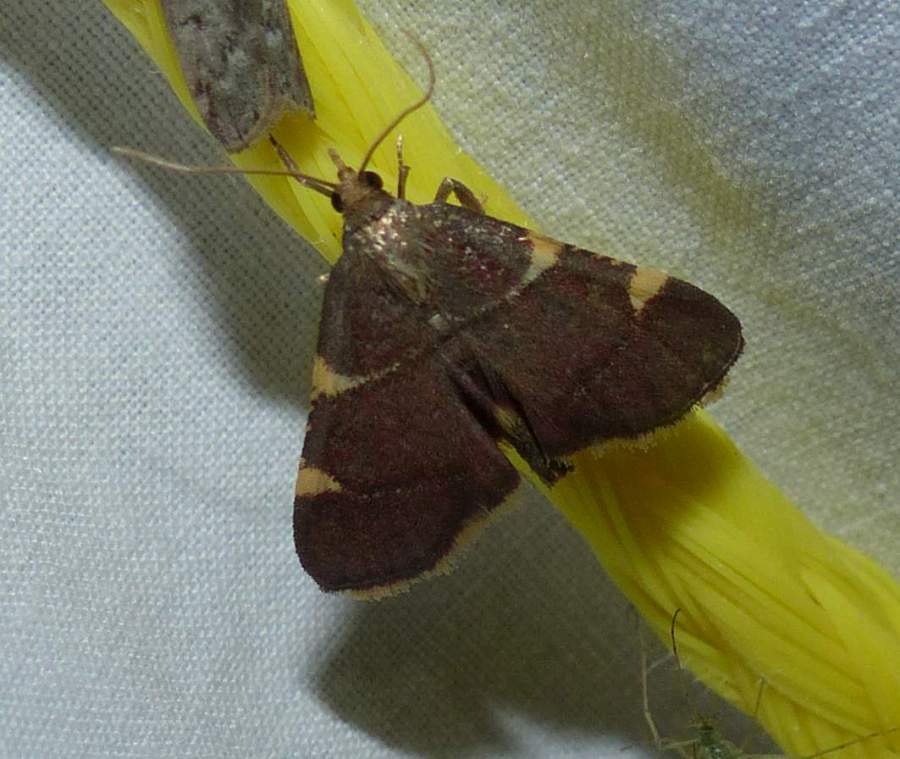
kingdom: Animalia
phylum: Arthropoda
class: Insecta
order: Lepidoptera
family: Pyralidae
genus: Hypsopygia
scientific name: Hypsopygia olinalis
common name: Yellow-fringed dolichomia moth
